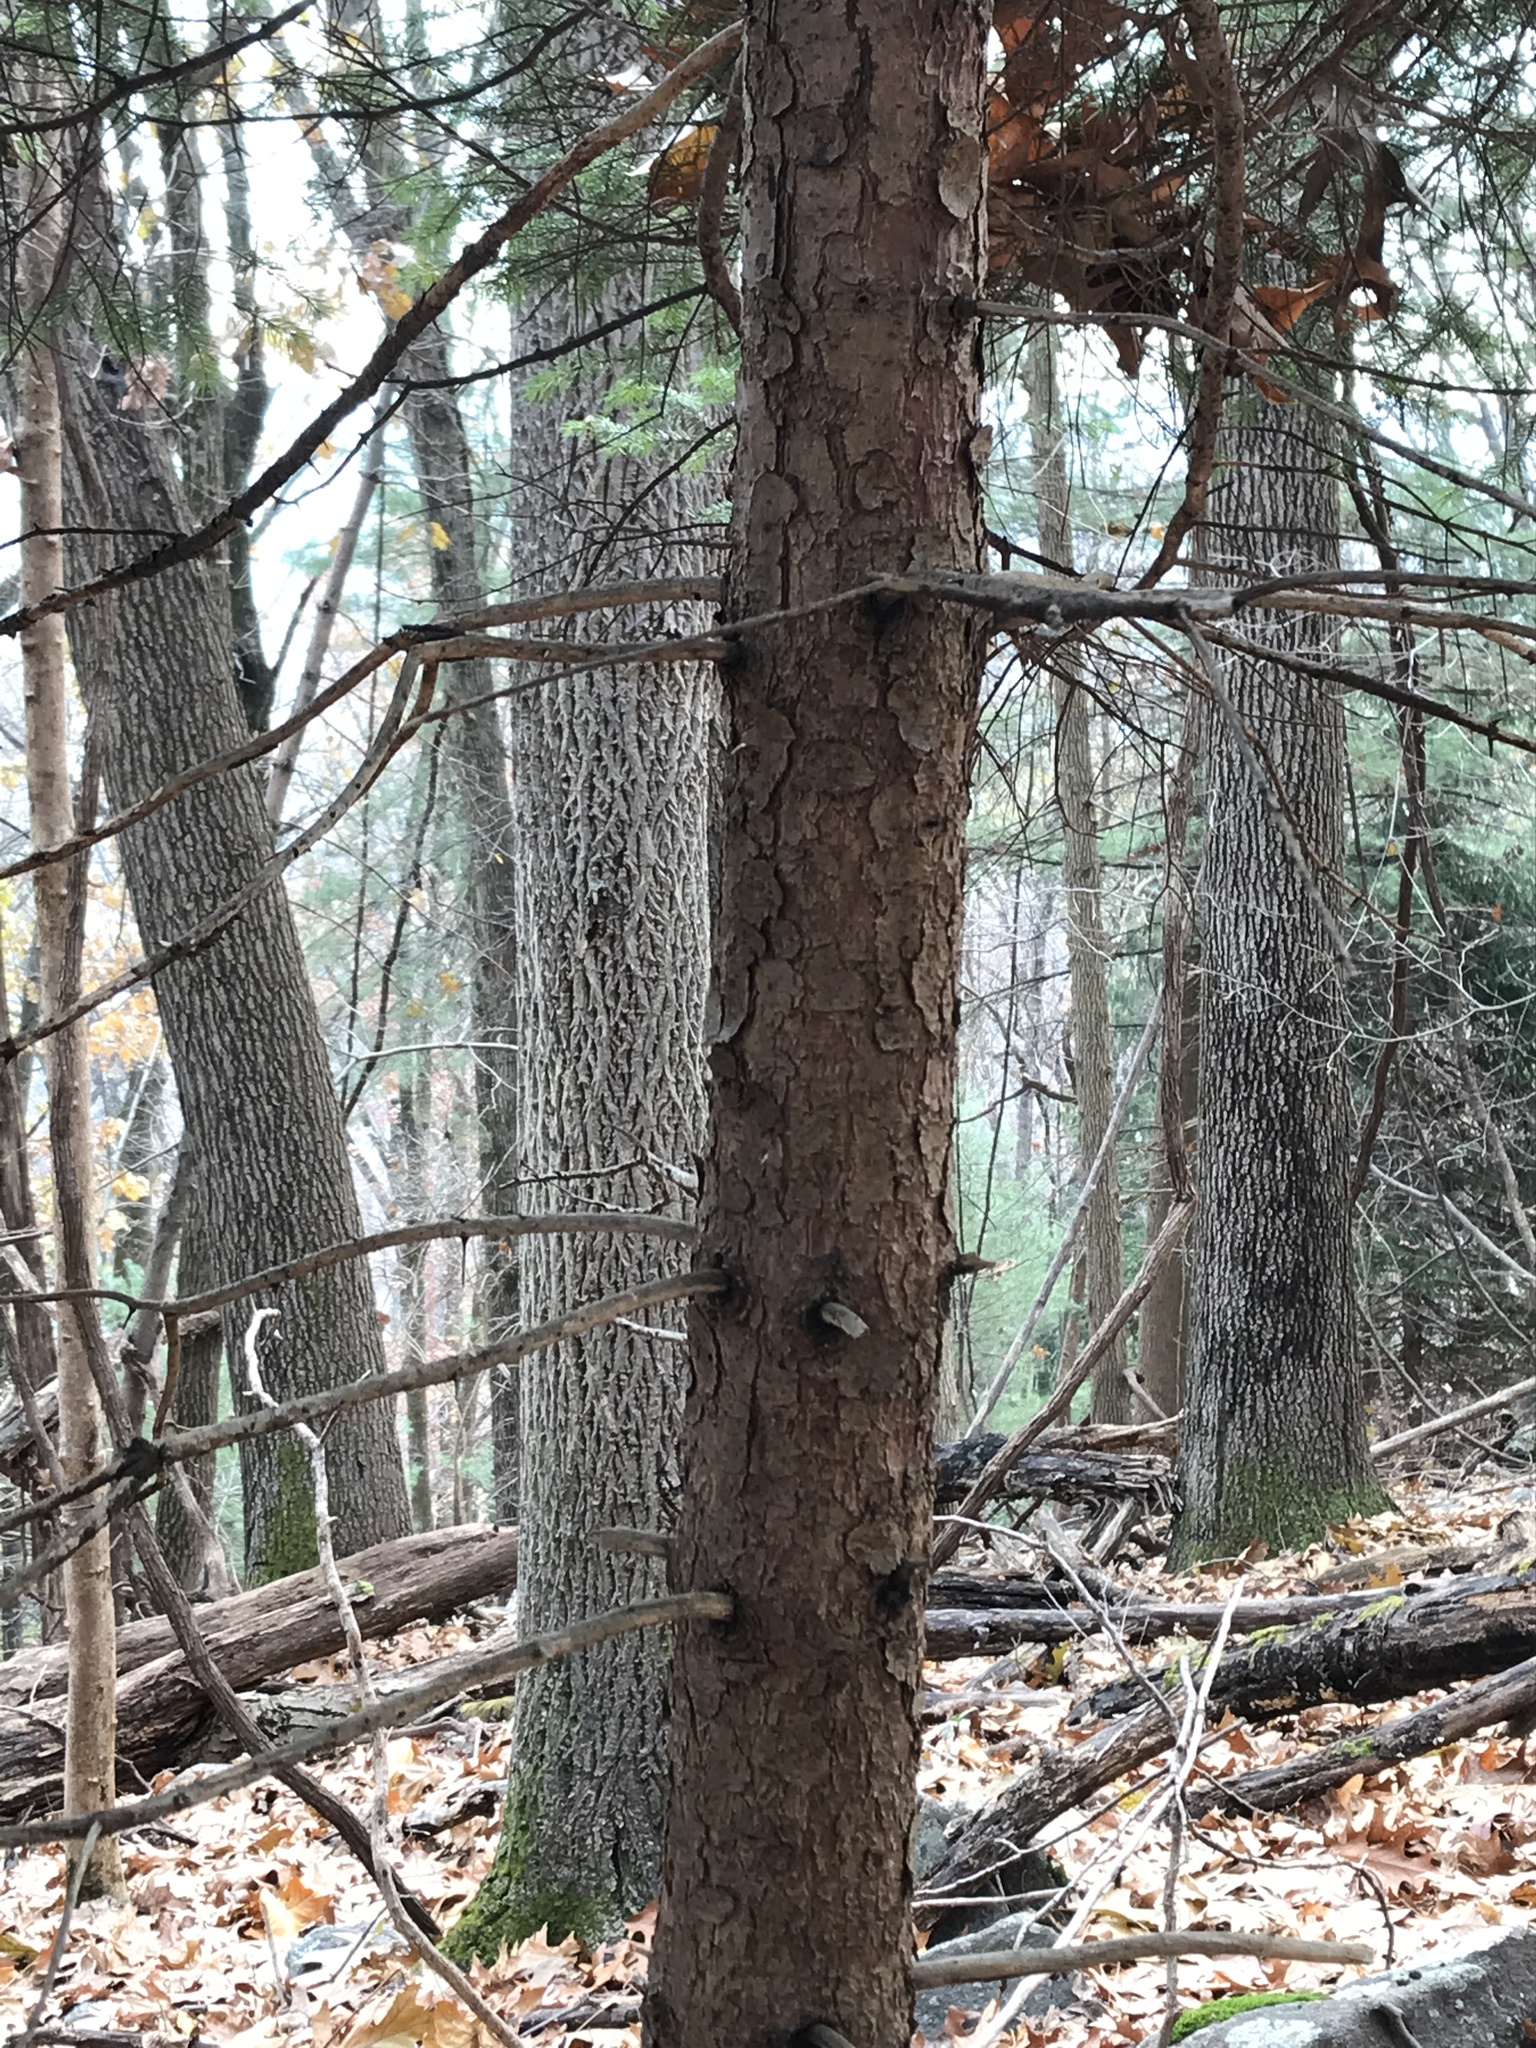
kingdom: Plantae
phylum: Tracheophyta
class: Pinopsida
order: Pinales
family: Pinaceae
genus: Picea
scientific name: Picea abies
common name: Norway spruce
